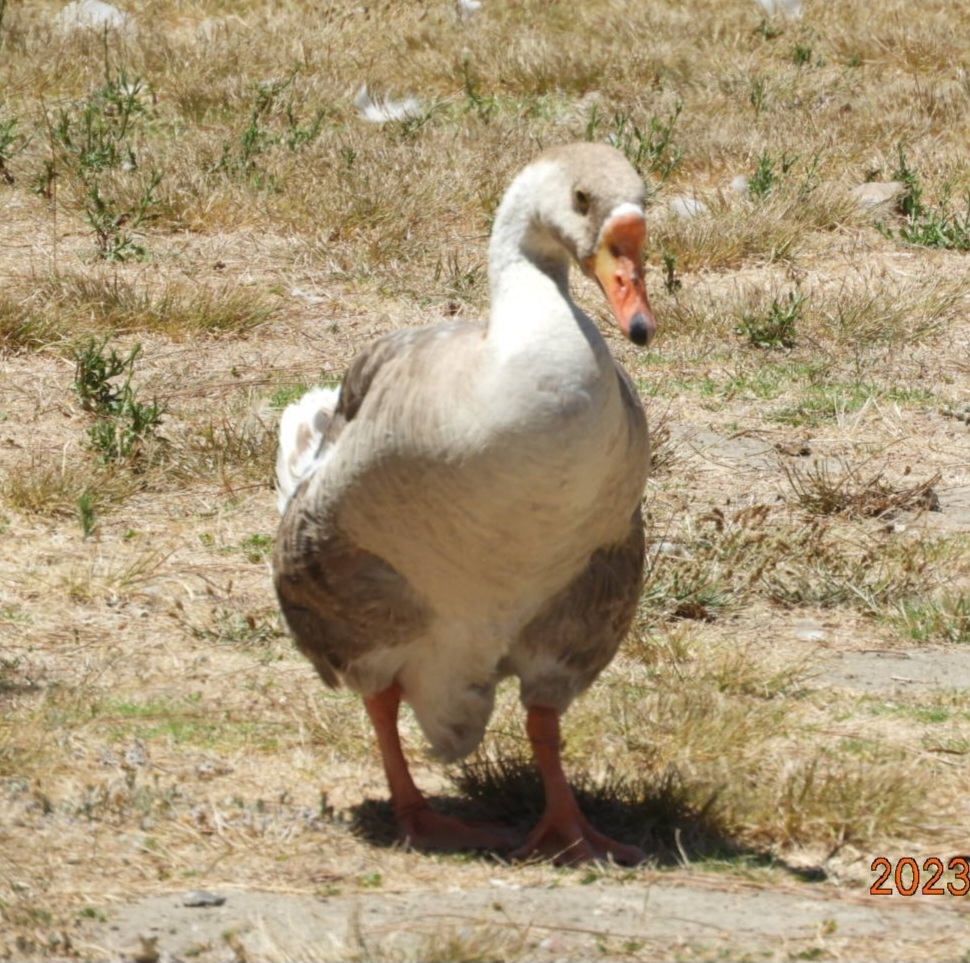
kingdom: Animalia
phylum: Chordata
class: Aves
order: Anseriformes
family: Anatidae
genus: Anser
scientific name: Anser
